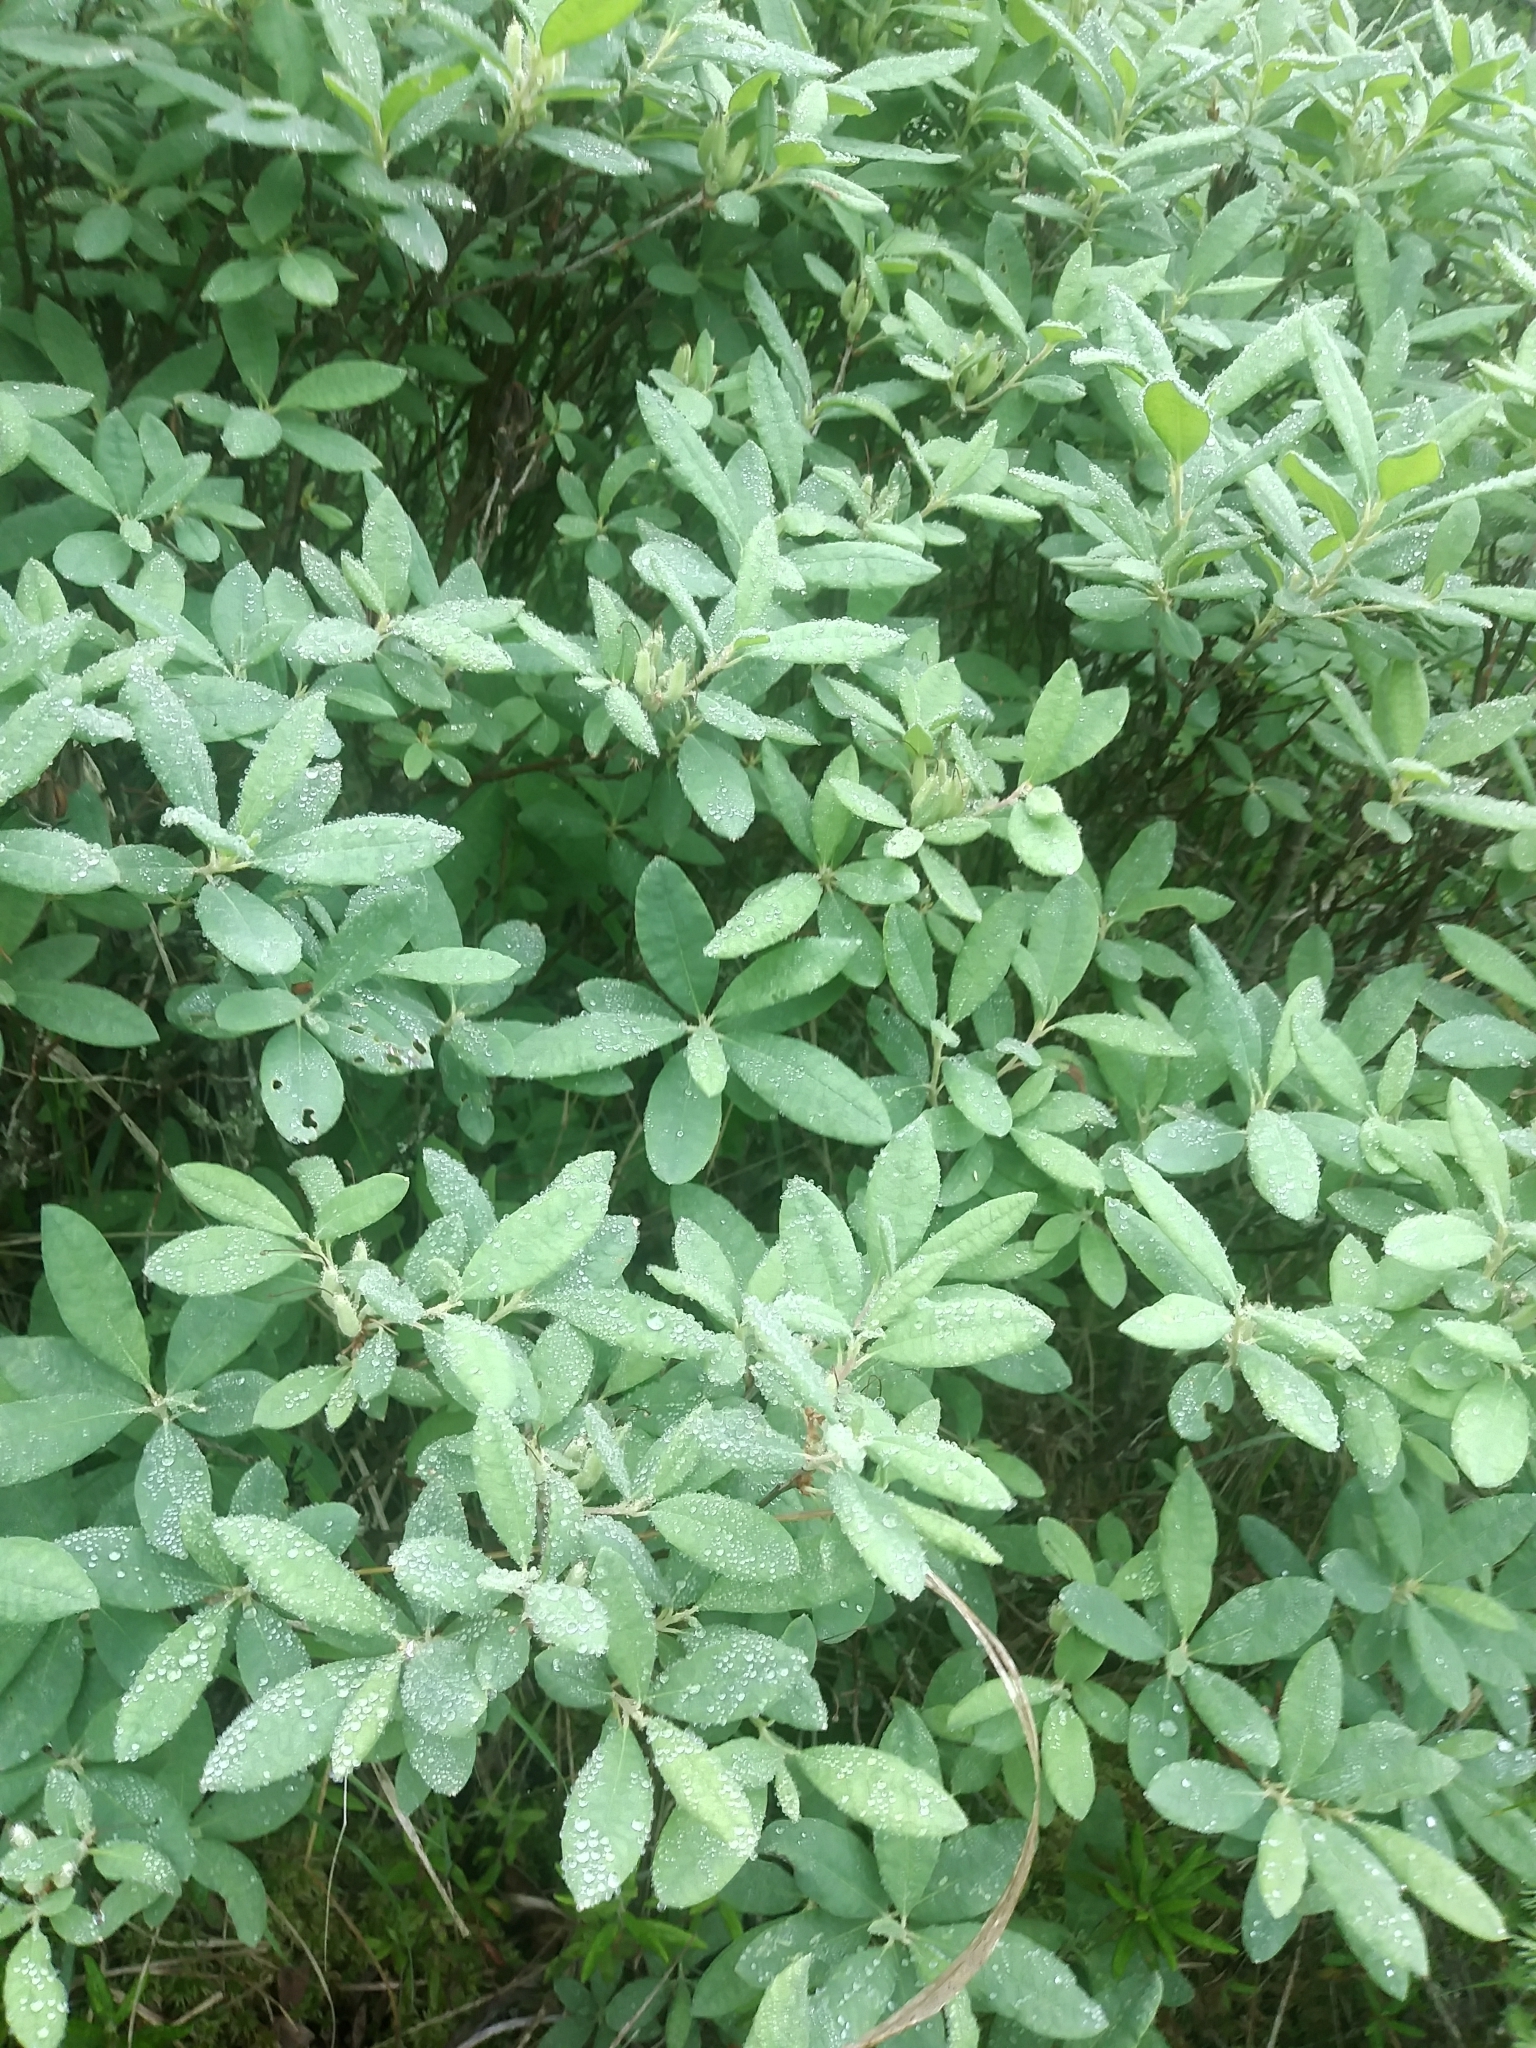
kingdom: Plantae
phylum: Tracheophyta
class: Magnoliopsida
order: Ericales
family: Ericaceae
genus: Rhododendron
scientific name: Rhododendron canadense
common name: Rhodora
